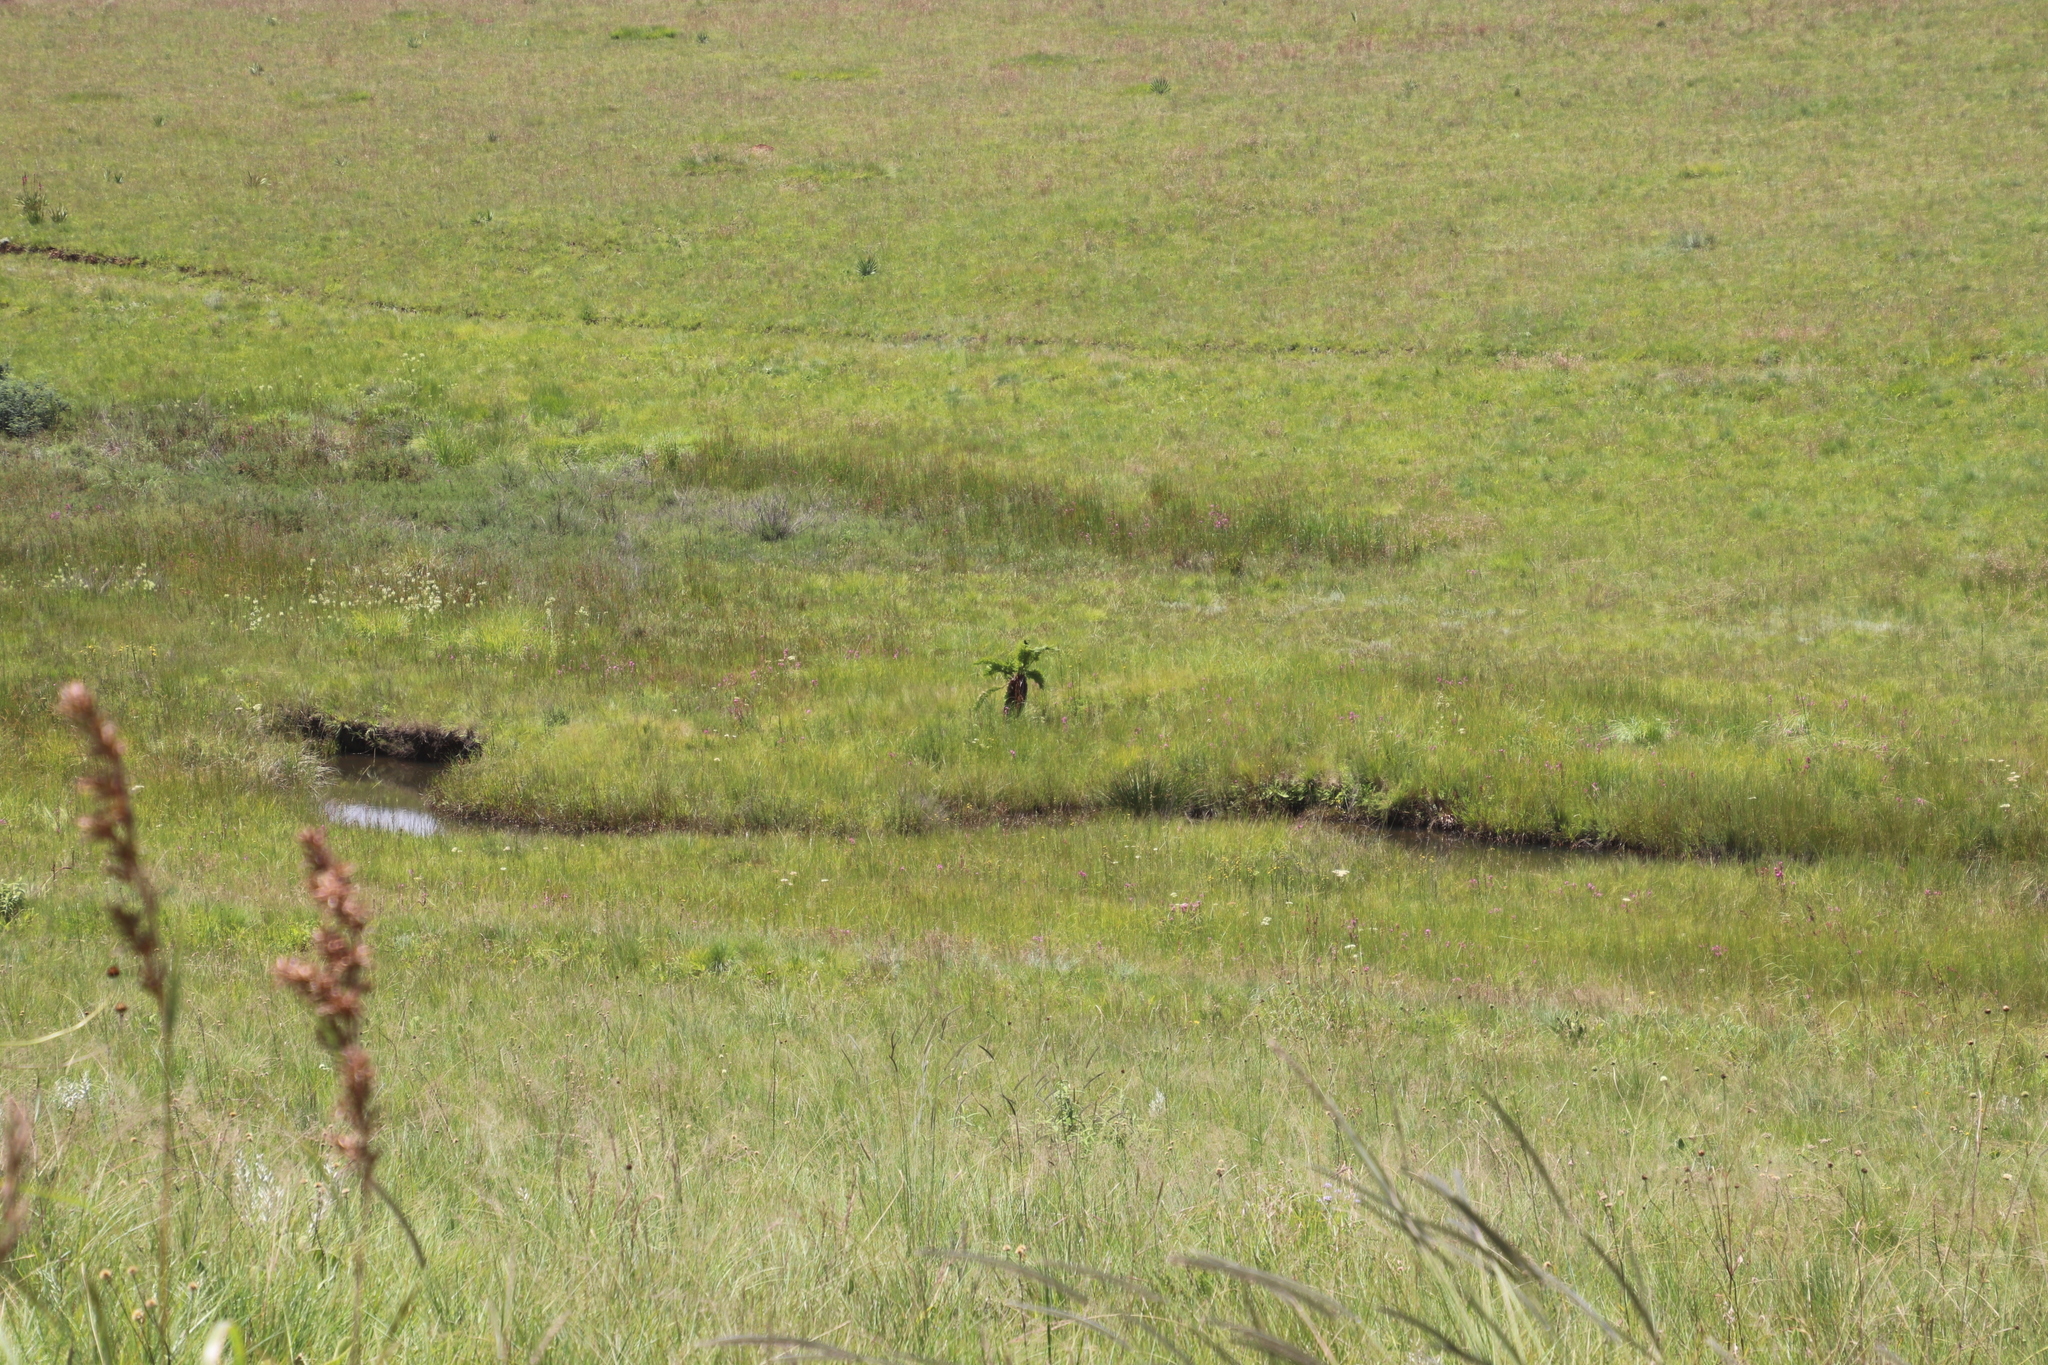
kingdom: Plantae
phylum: Tracheophyta
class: Polypodiopsida
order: Cyatheales
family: Cyatheaceae
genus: Alsophila
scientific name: Alsophila dregei
